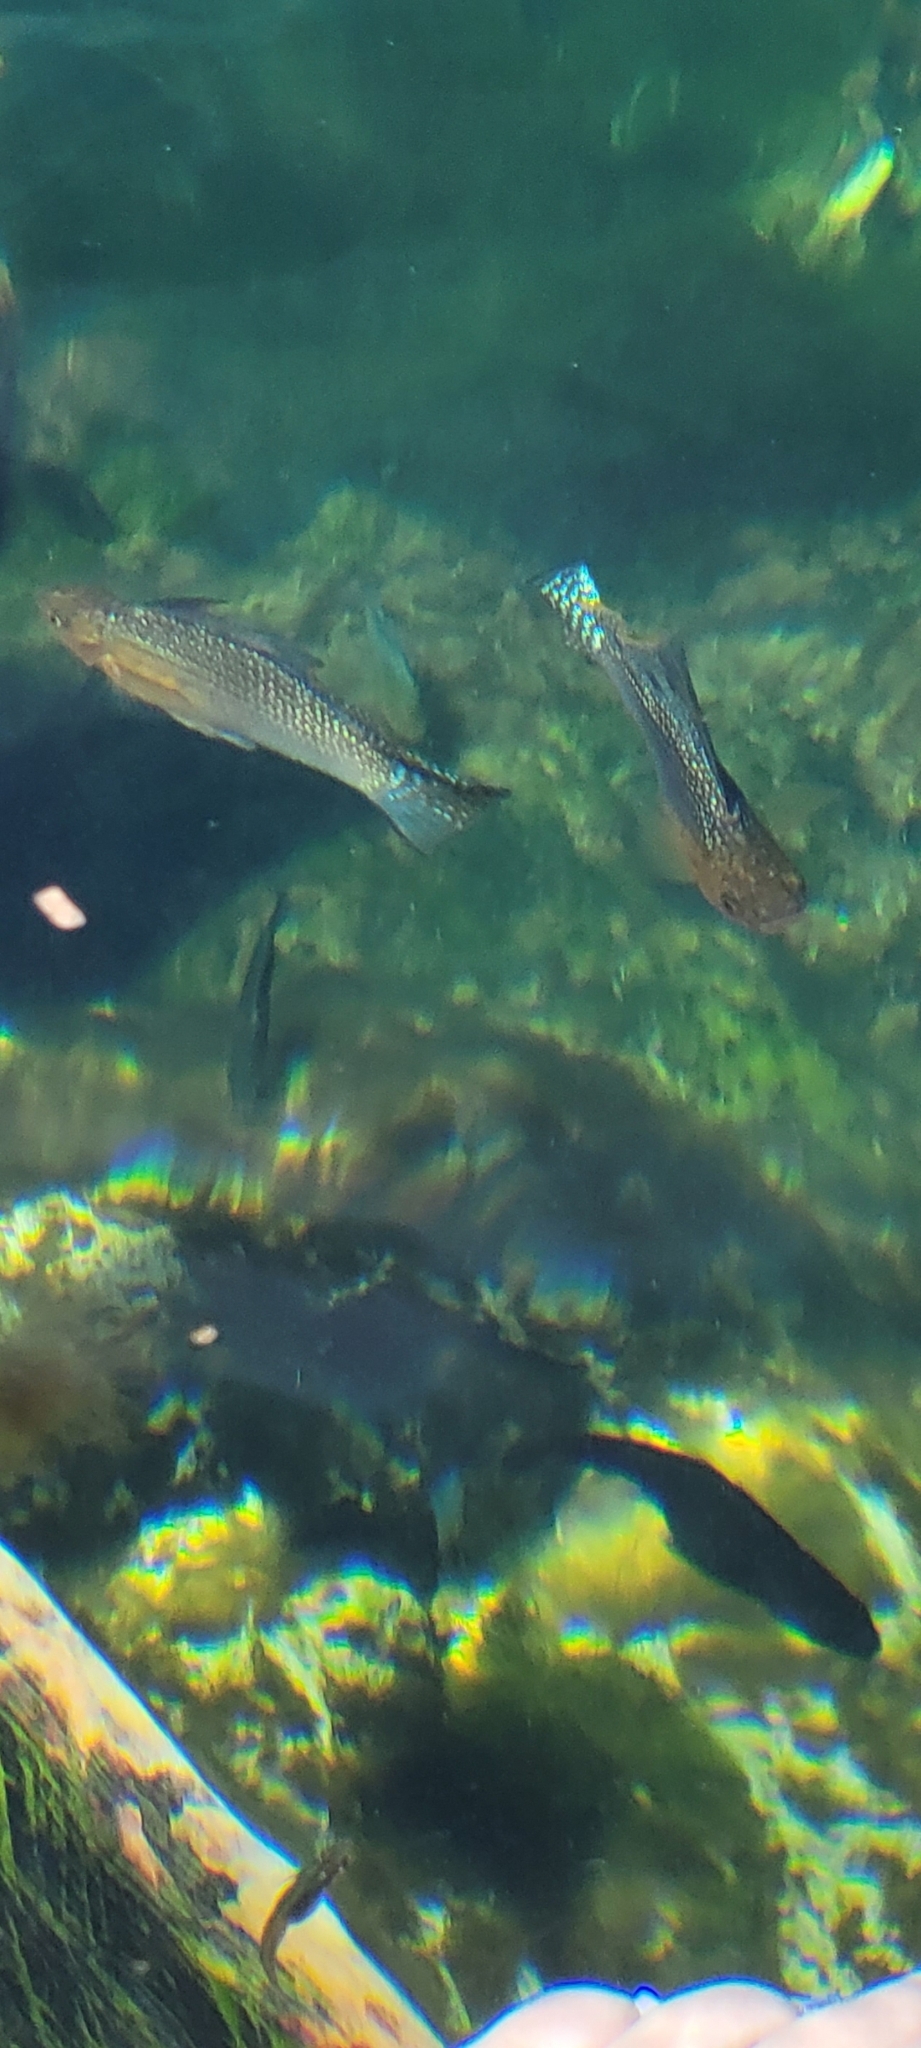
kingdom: Animalia
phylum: Chordata
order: Cyprinodontiformes
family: Poeciliidae
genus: Poecilia
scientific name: Poecilia velifera
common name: Sail-fin molly
